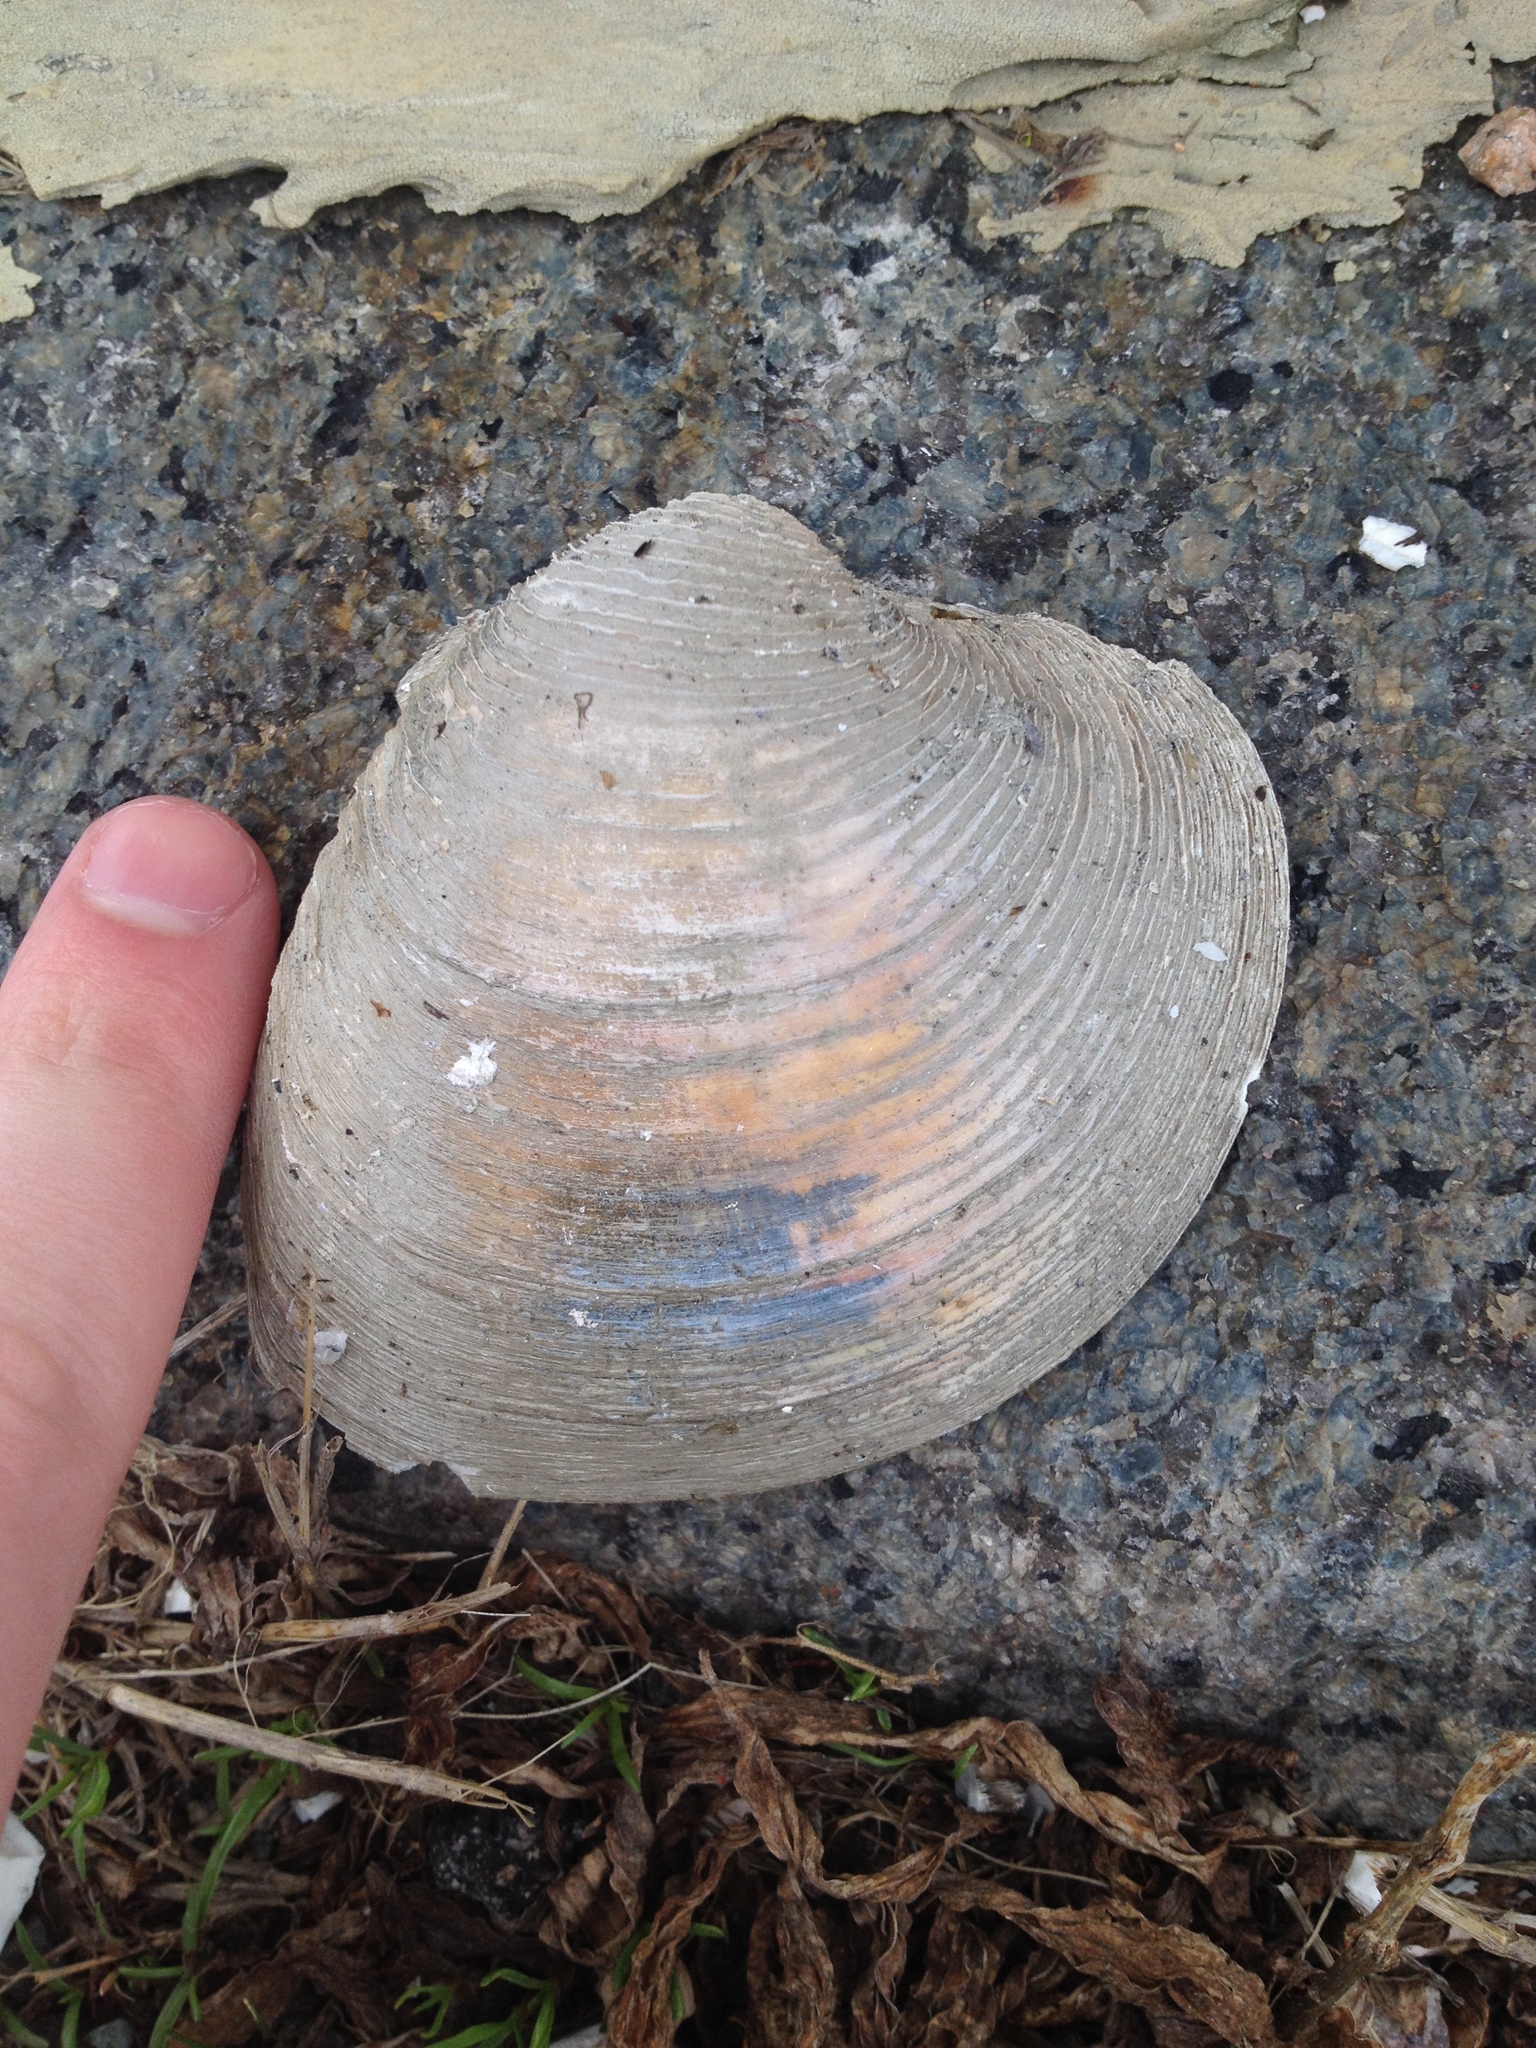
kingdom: Animalia
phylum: Mollusca
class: Bivalvia
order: Venerida
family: Veneridae
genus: Mercenaria
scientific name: Mercenaria mercenaria
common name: American hard-shelled clam
